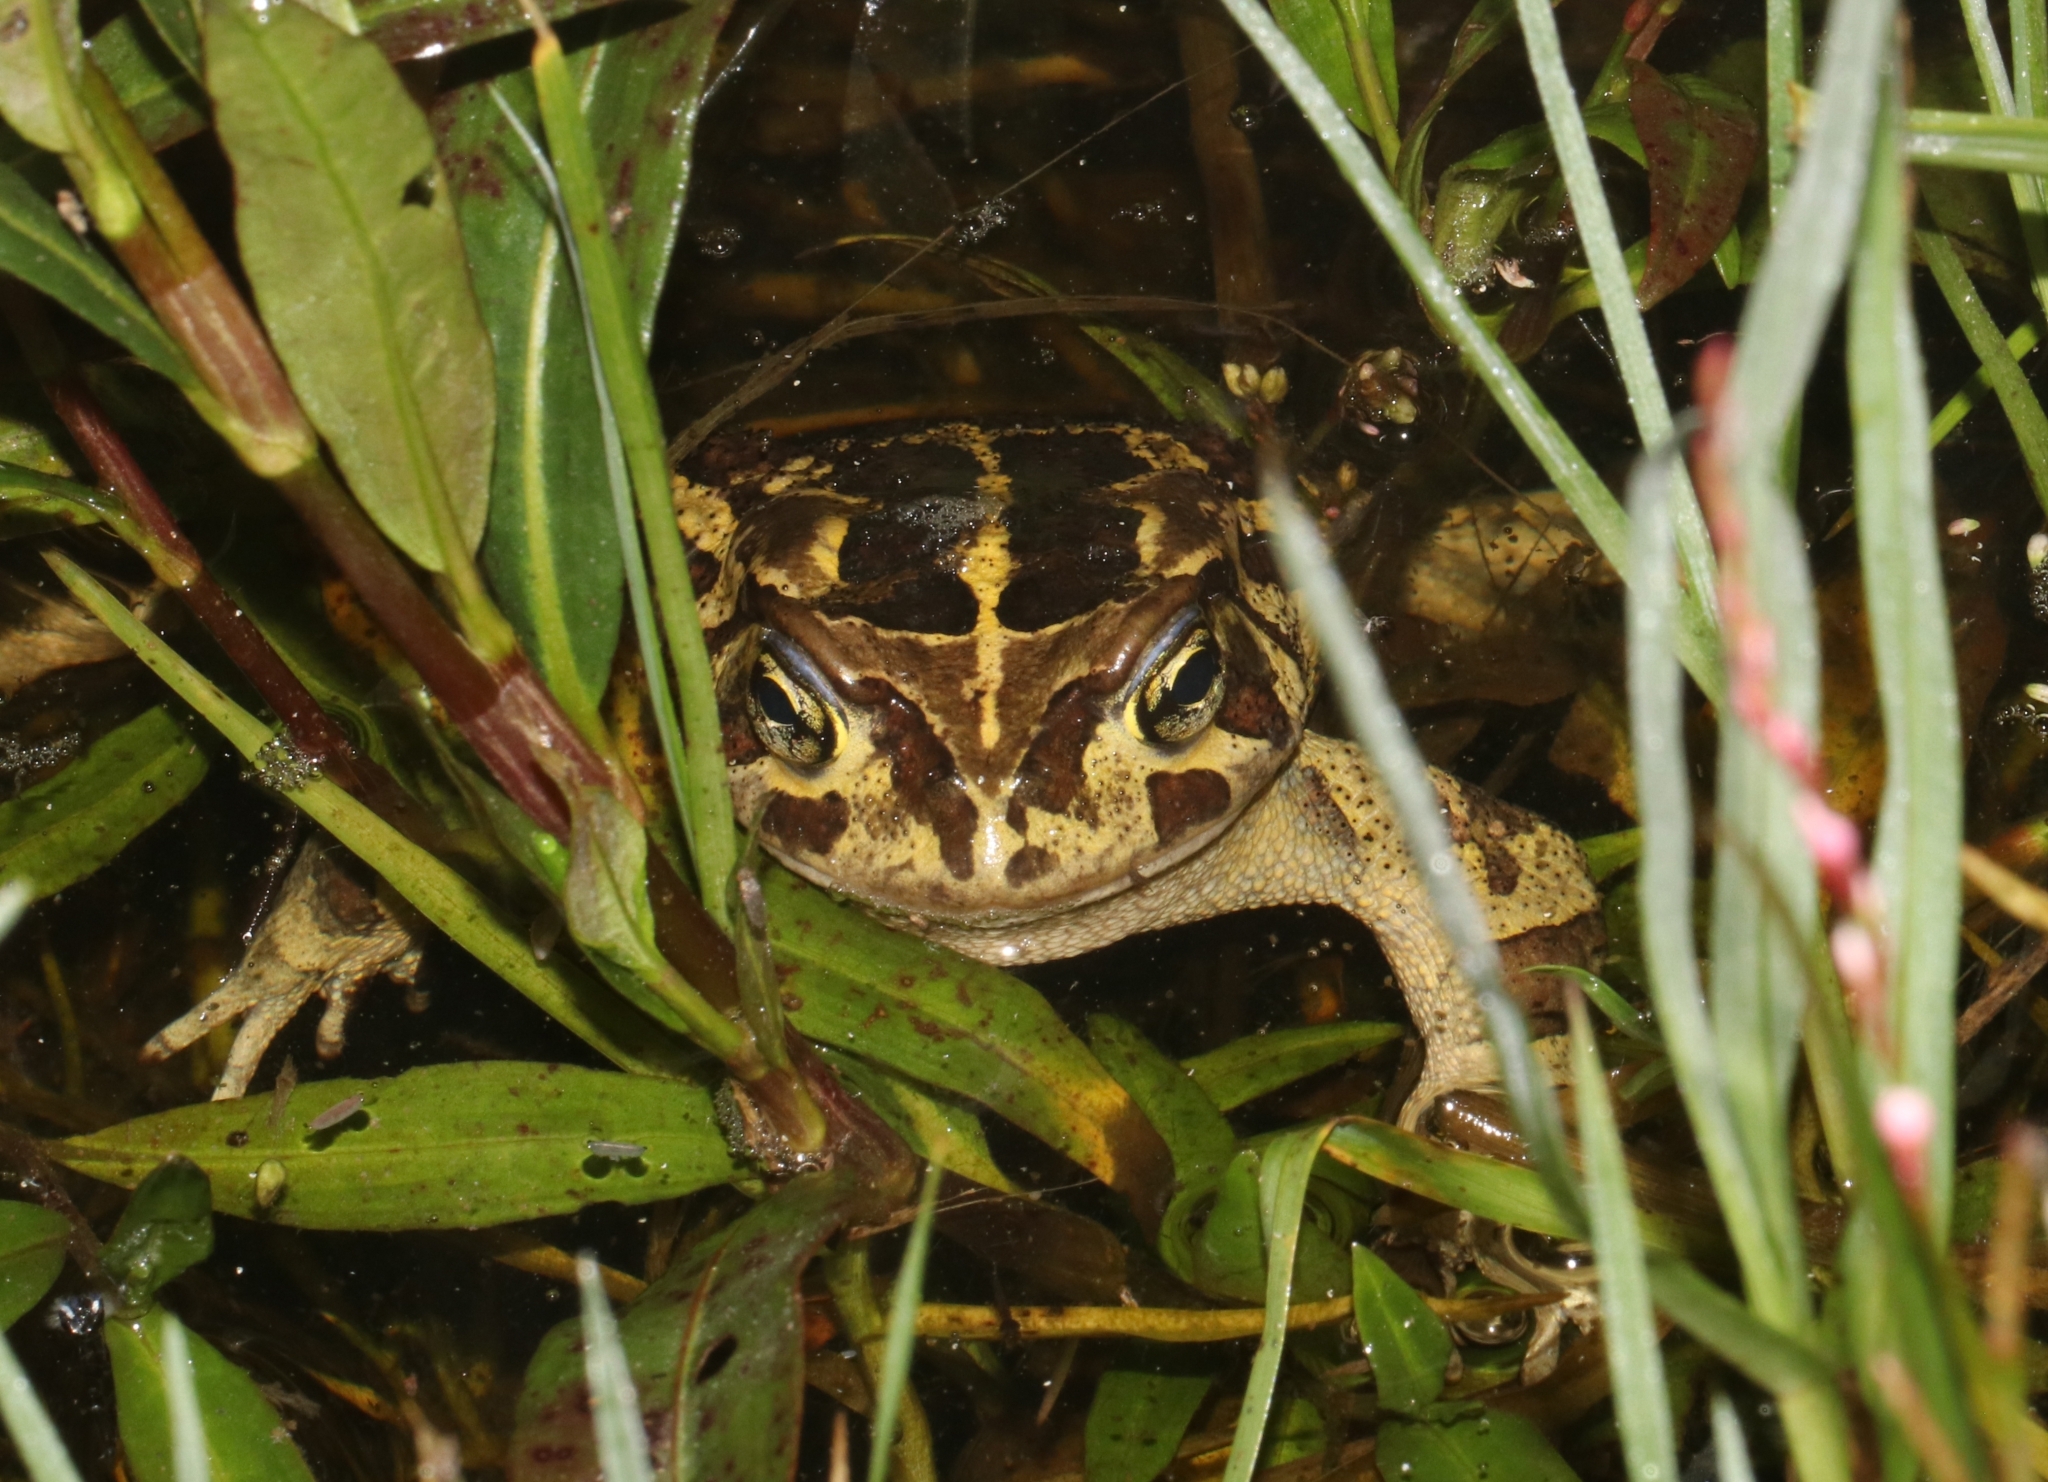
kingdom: Animalia
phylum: Chordata
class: Amphibia
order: Anura
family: Bufonidae
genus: Sclerophrys
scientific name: Sclerophrys pantherina
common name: Panther toad
